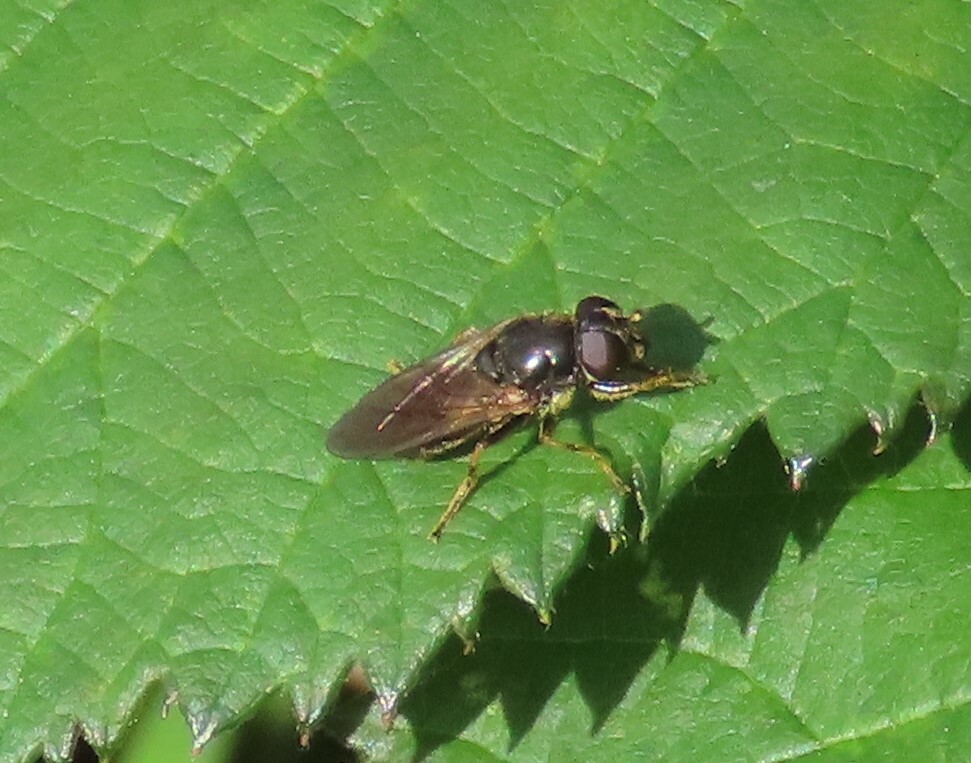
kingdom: Animalia
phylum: Arthropoda
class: Insecta
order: Diptera
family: Syrphidae
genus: Cheilosia
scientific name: Cheilosia
